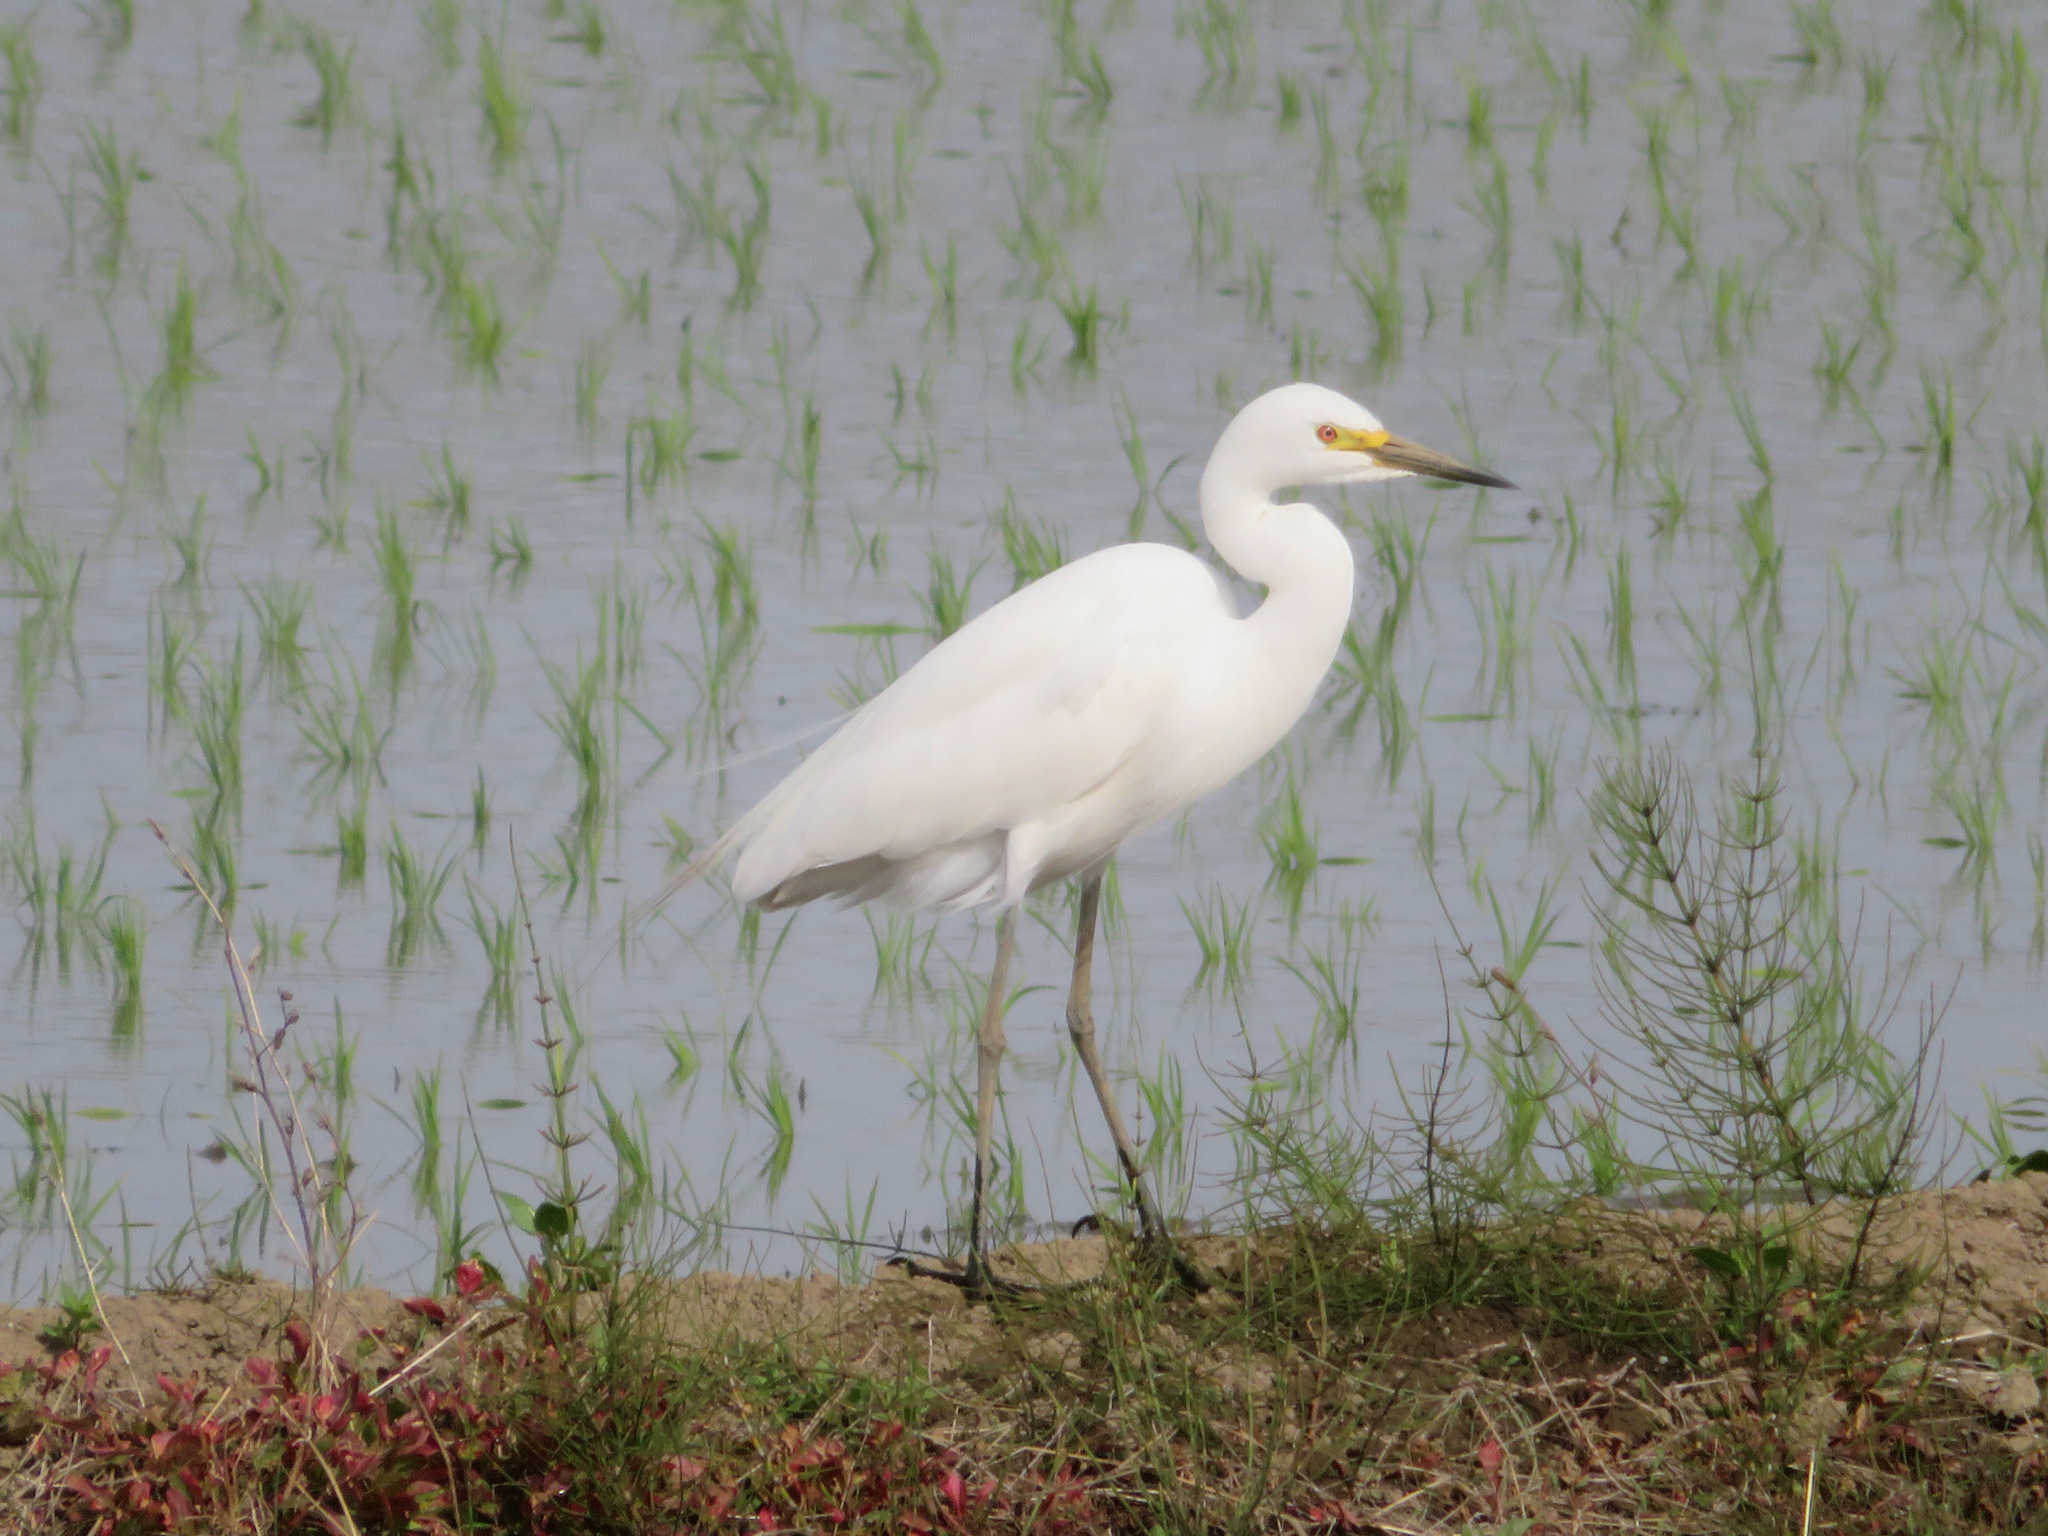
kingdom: Animalia
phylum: Chordata
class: Aves
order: Pelecaniformes
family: Ardeidae
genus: Egretta
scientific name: Egretta intermedia
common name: Intermediate egret
